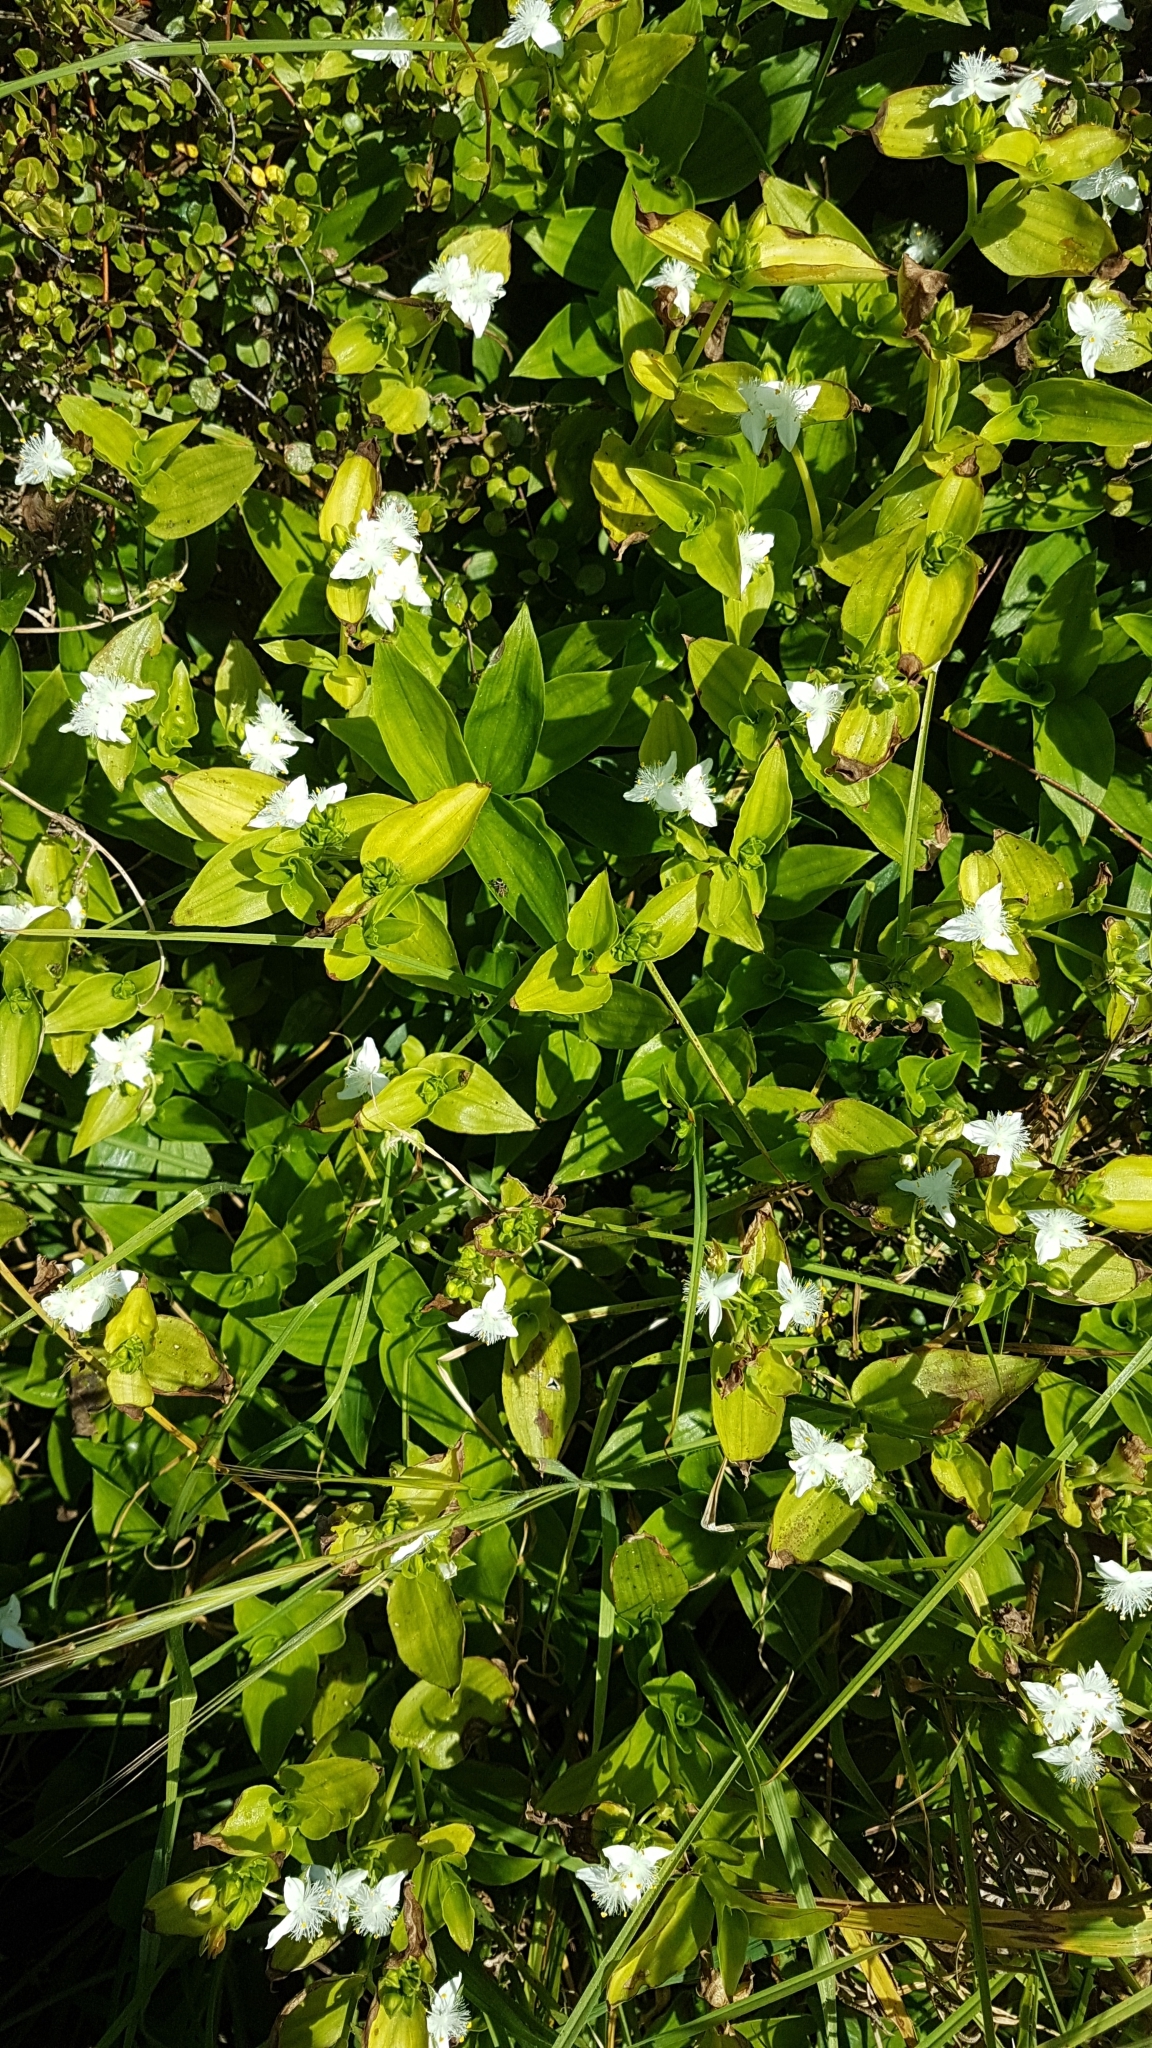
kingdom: Plantae
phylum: Tracheophyta
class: Liliopsida
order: Commelinales
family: Commelinaceae
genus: Tradescantia
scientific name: Tradescantia fluminensis
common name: Wandering-jew
